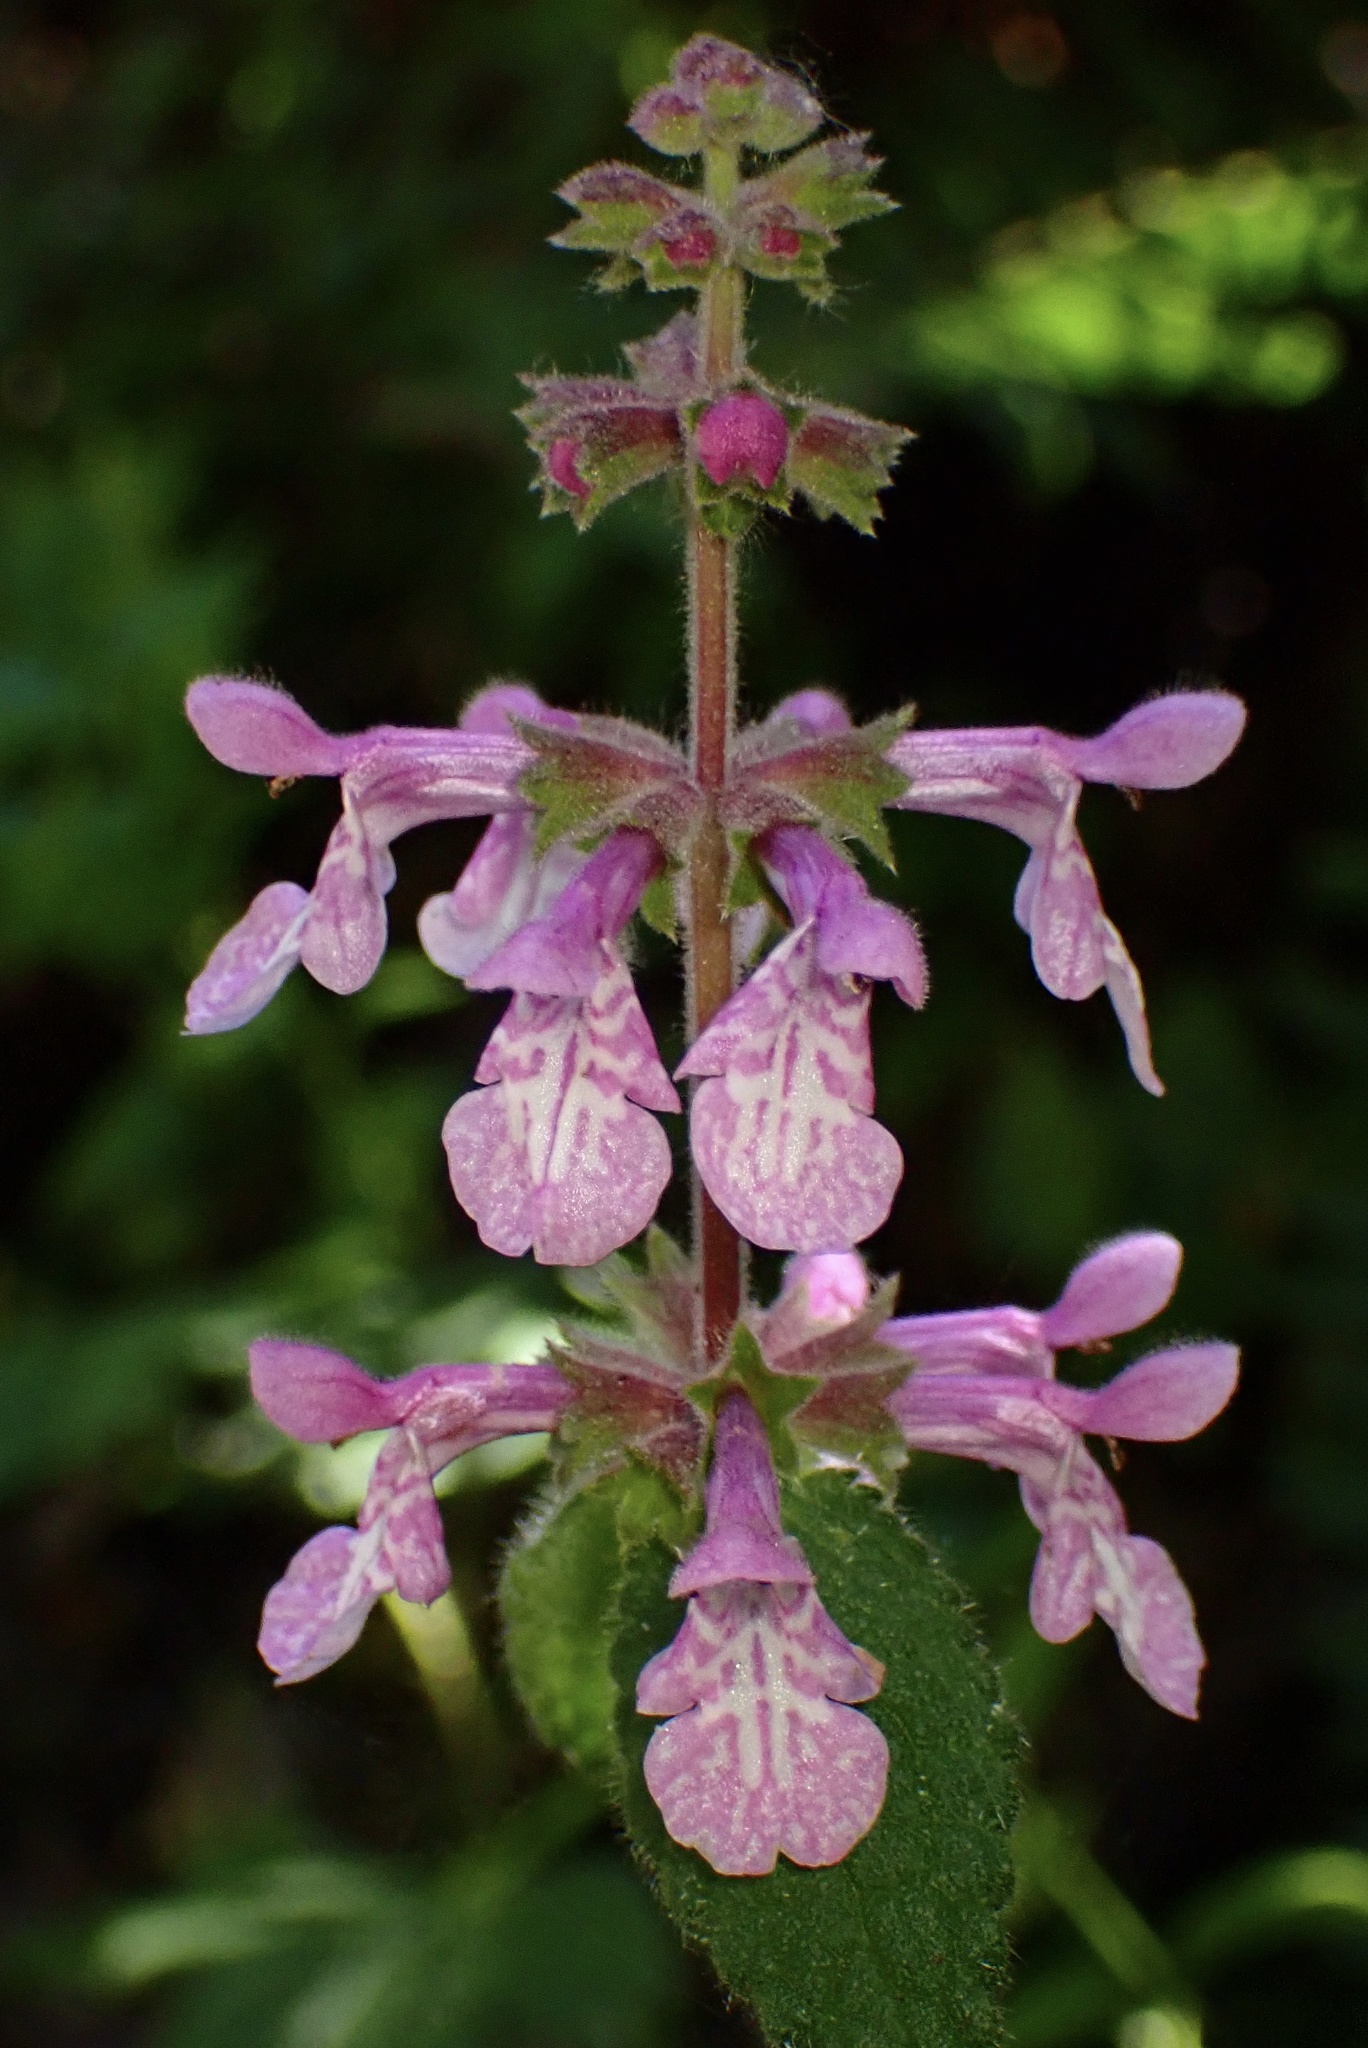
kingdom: Plantae
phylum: Tracheophyta
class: Magnoliopsida
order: Lamiales
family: Lamiaceae
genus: Stachys
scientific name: Stachys bullata
